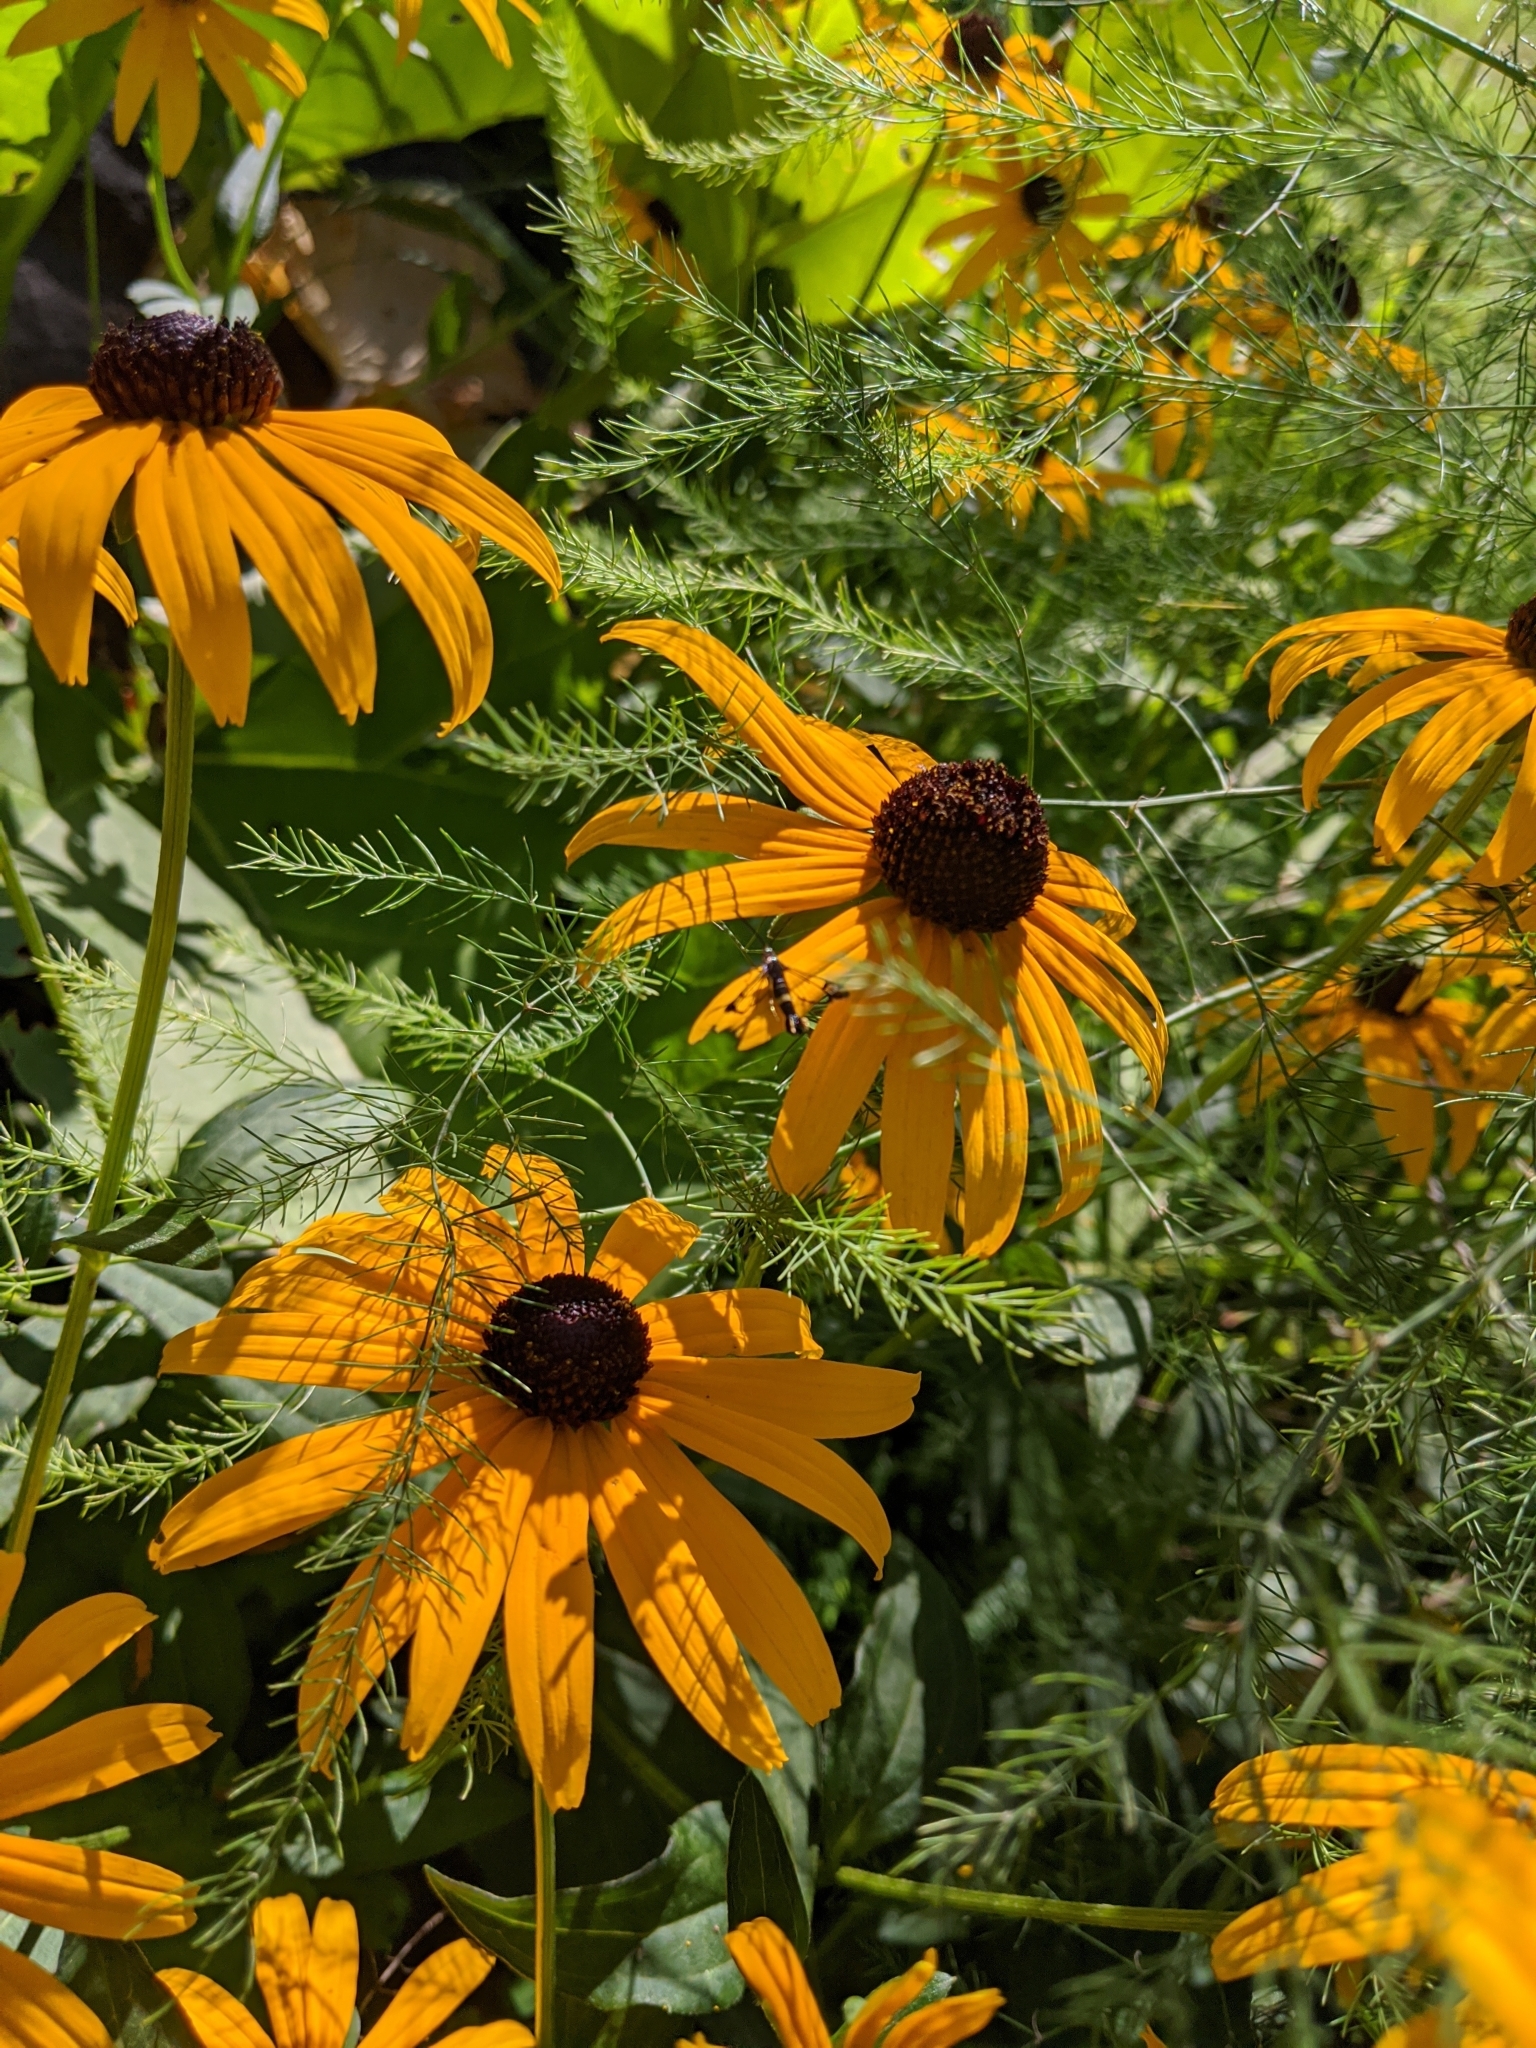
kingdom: Plantae
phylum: Tracheophyta
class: Magnoliopsida
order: Asterales
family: Asteraceae
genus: Rudbeckia
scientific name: Rudbeckia hirta
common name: Black-eyed-susan
